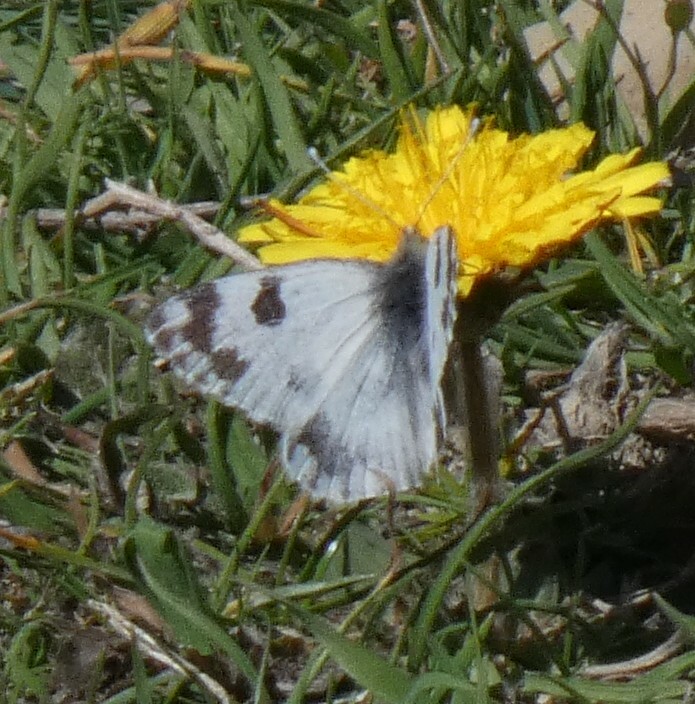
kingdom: Animalia
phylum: Arthropoda
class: Insecta
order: Lepidoptera
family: Pieridae
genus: Pontia
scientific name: Pontia daplidice
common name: Bath white
